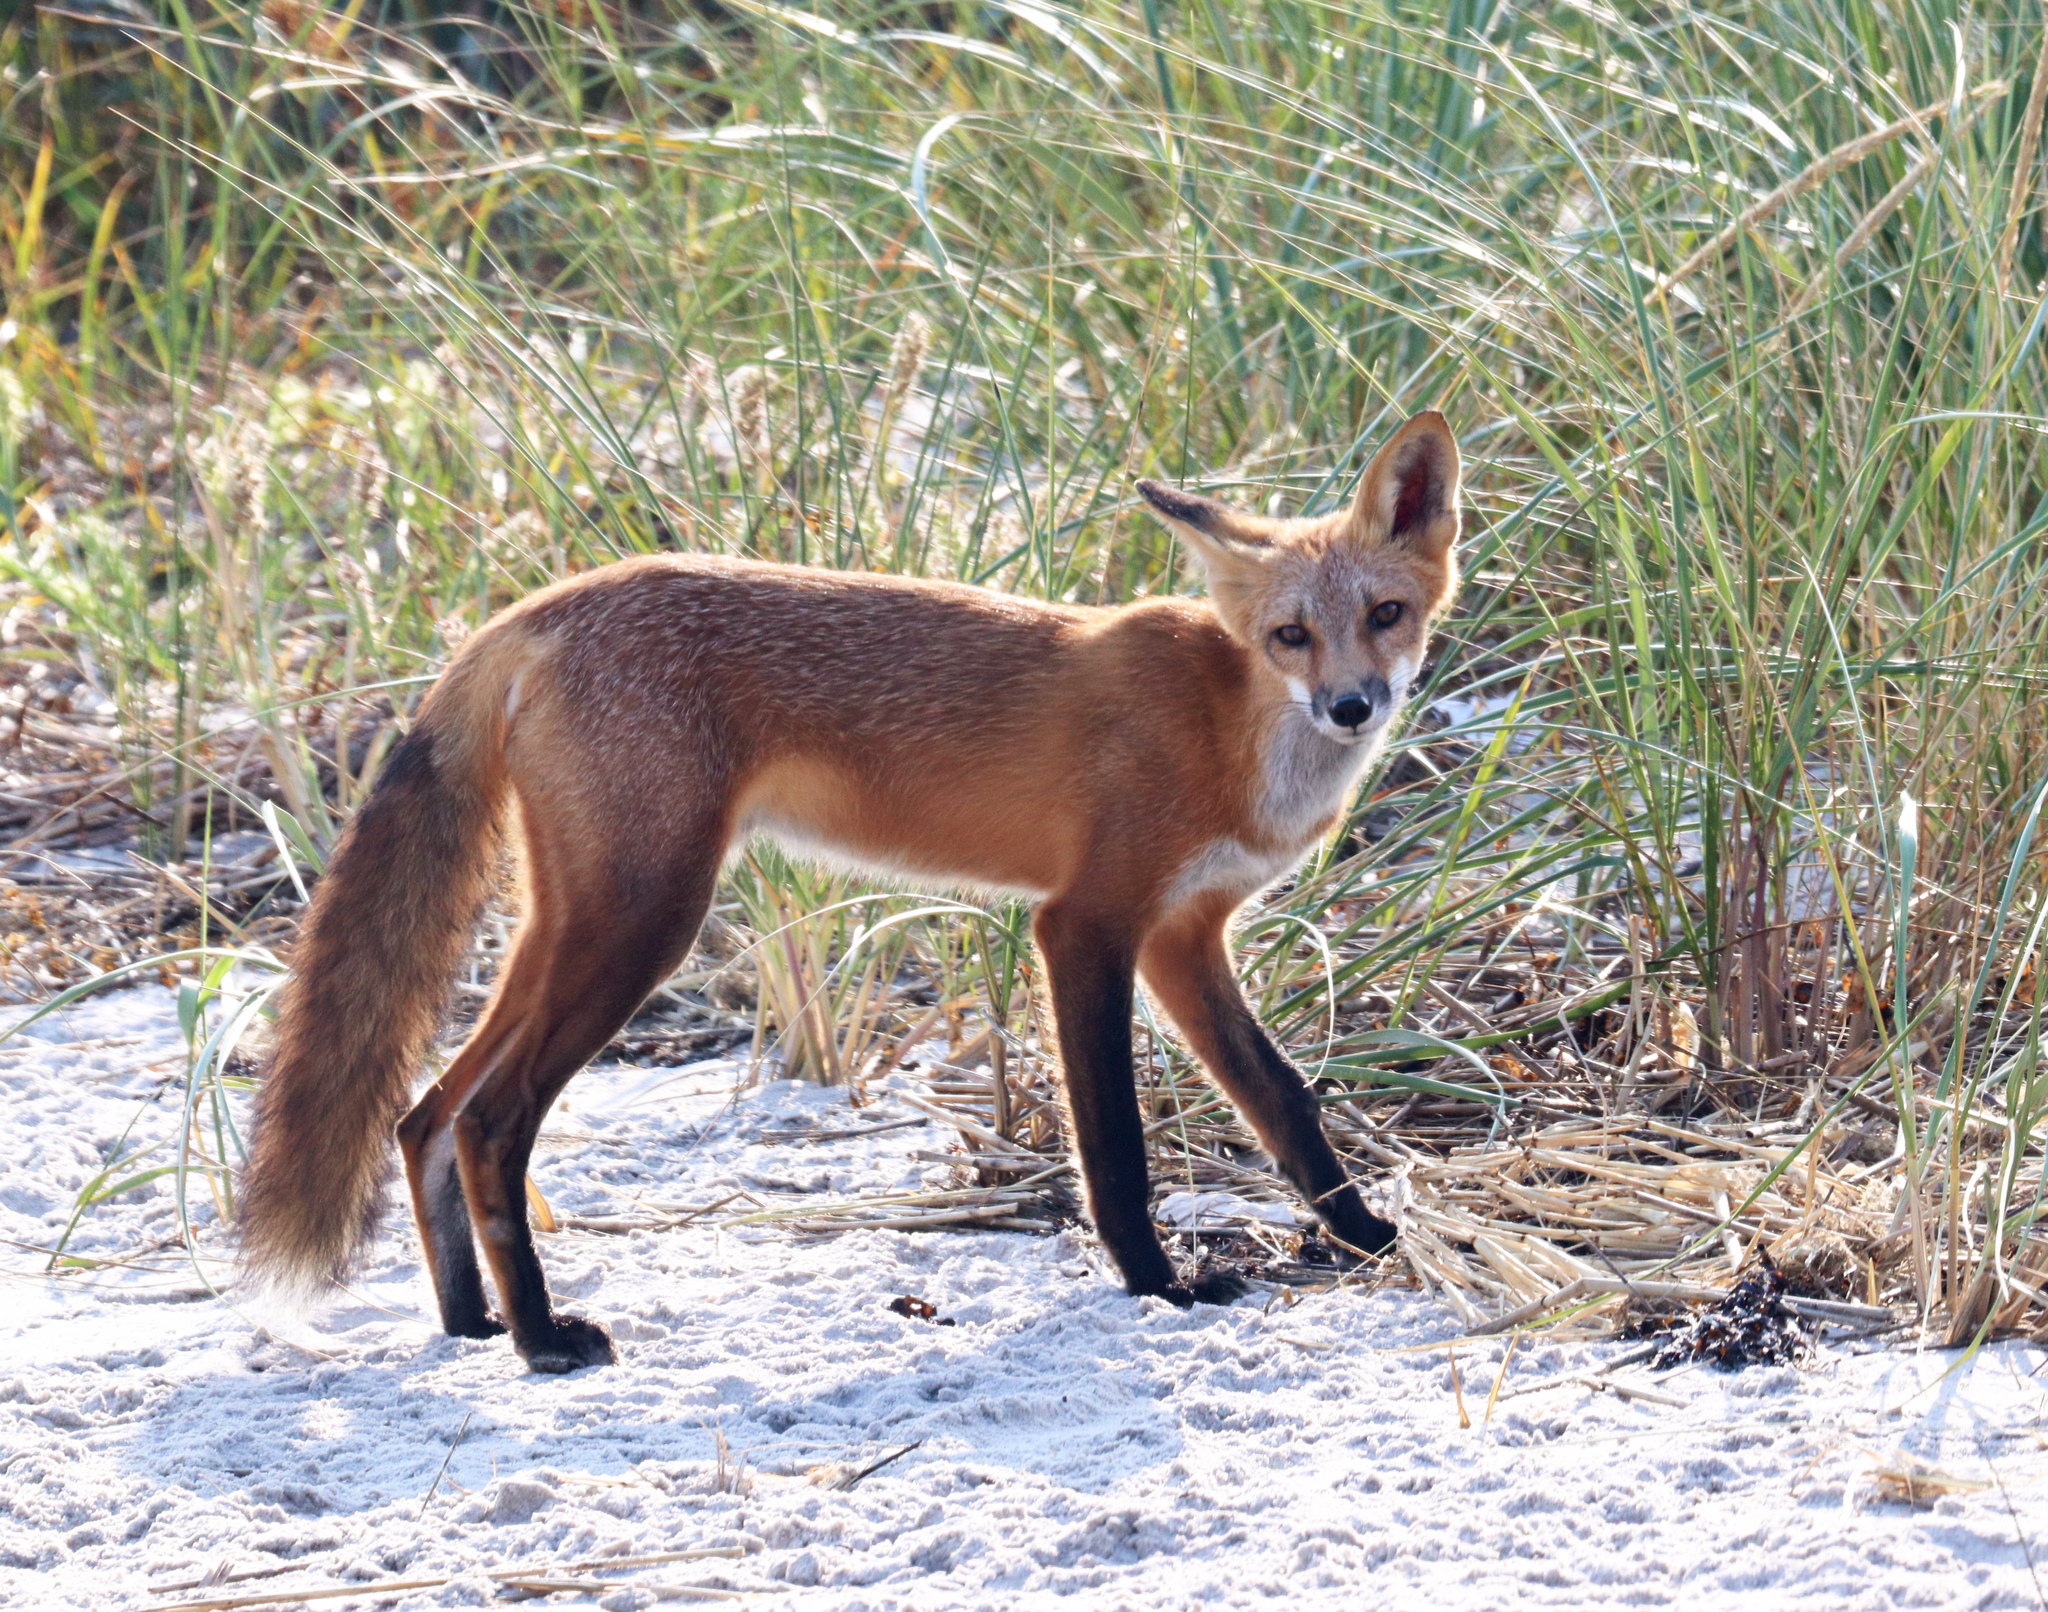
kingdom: Animalia
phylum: Chordata
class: Mammalia
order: Carnivora
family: Canidae
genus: Vulpes
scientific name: Vulpes vulpes
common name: Red fox
